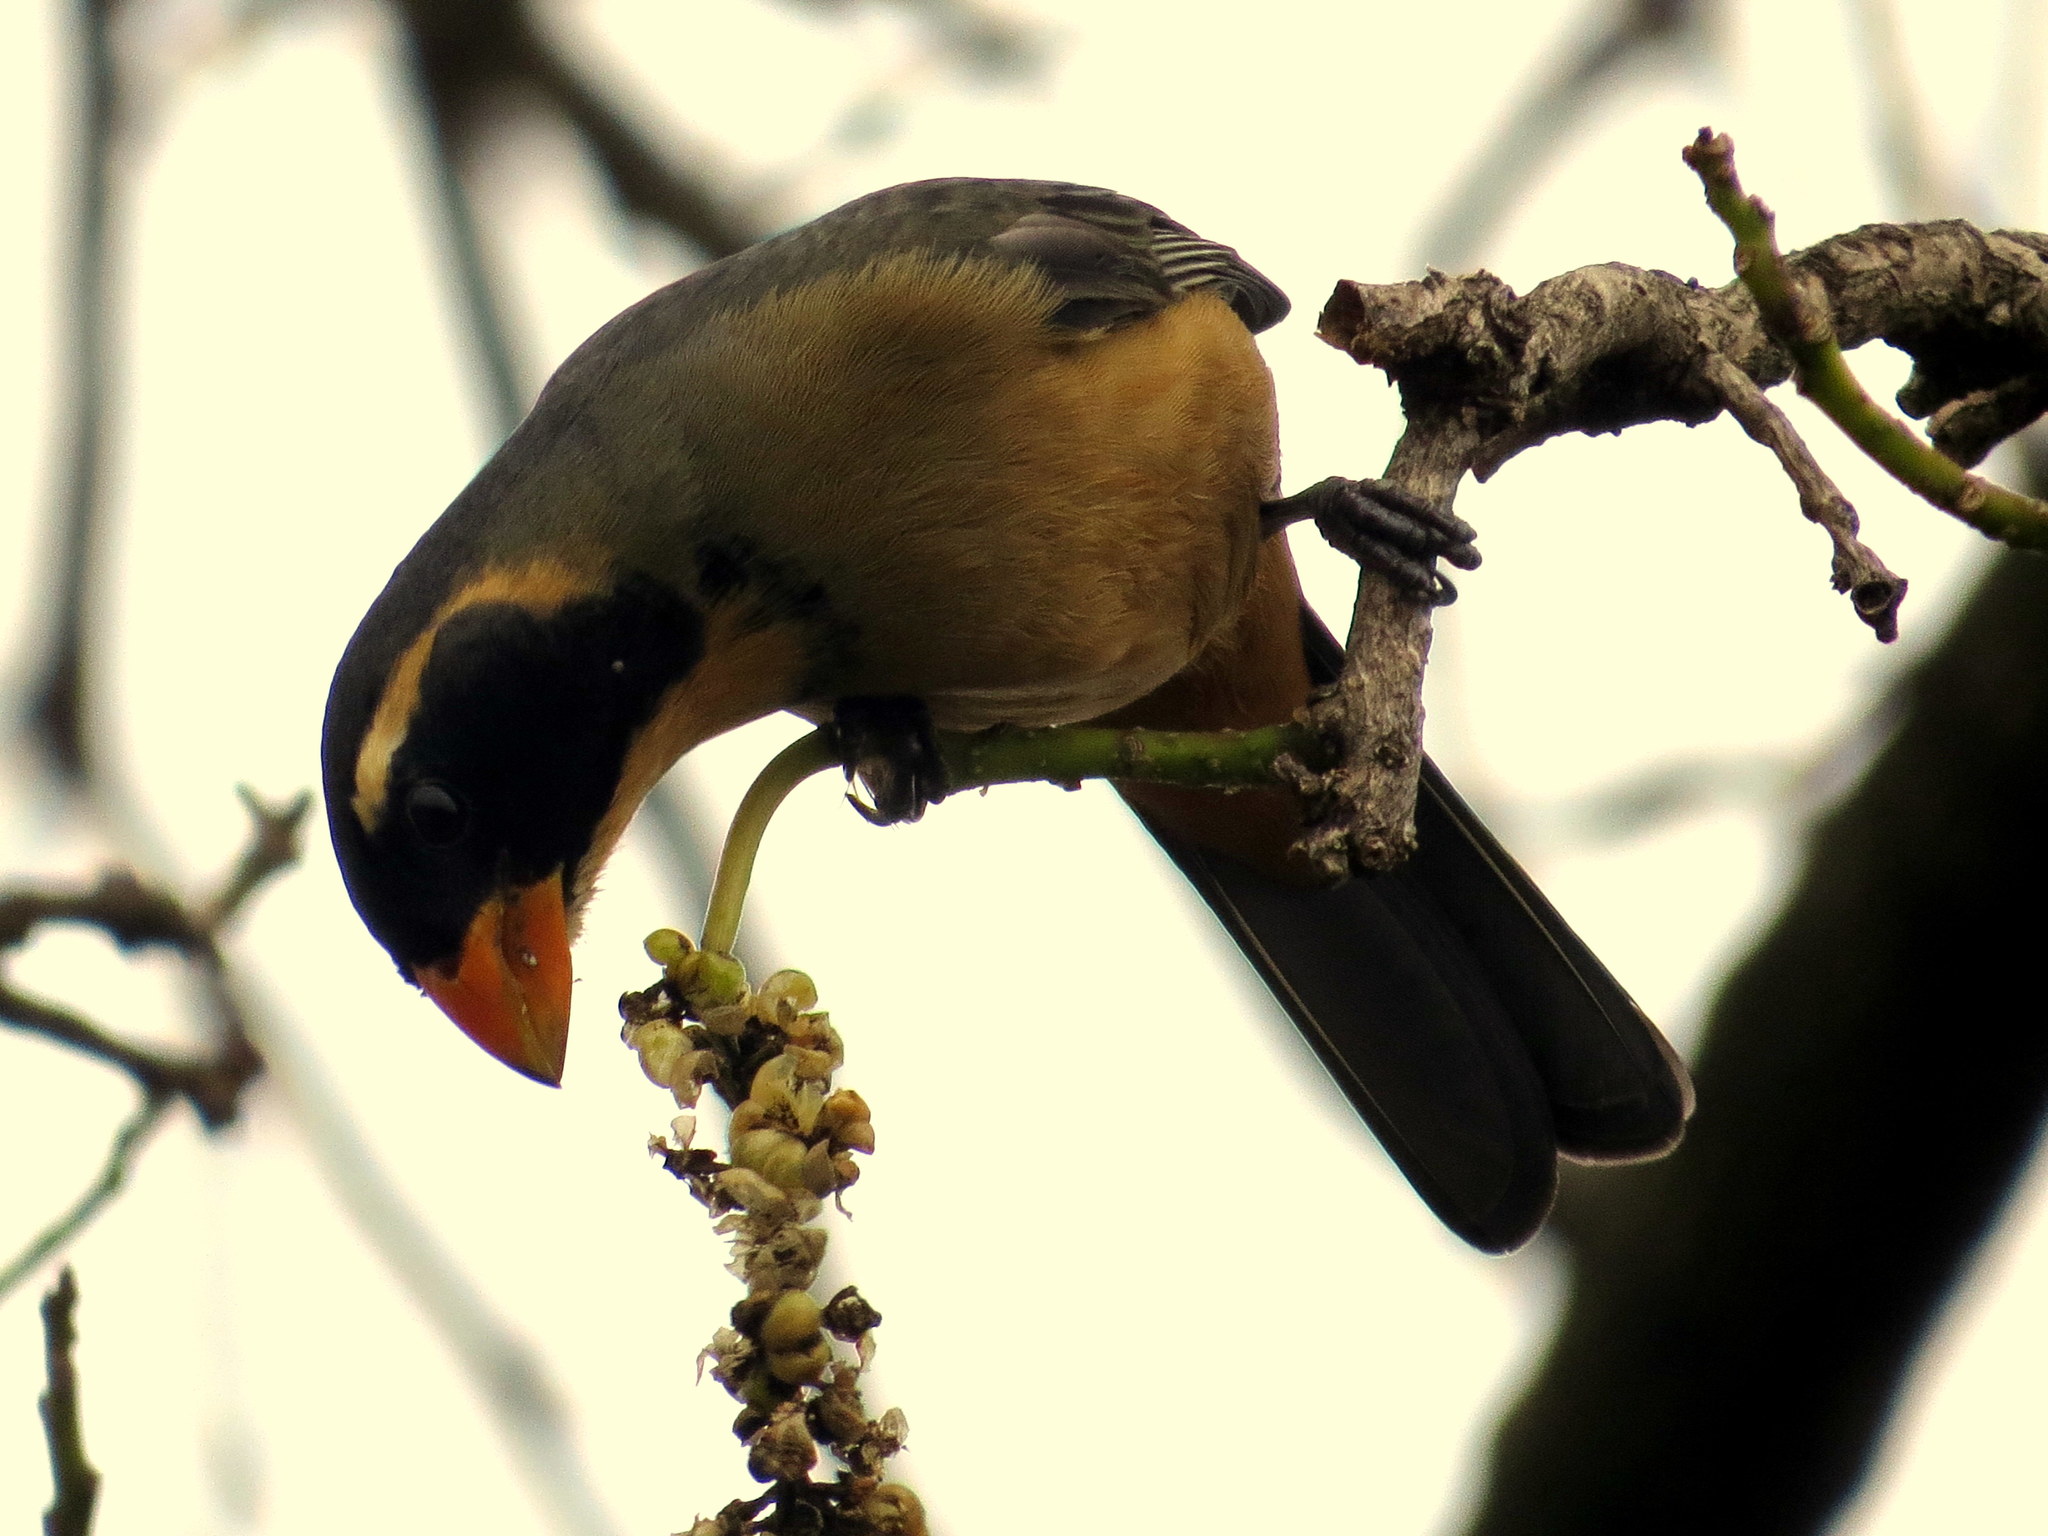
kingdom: Animalia
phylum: Chordata
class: Aves
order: Passeriformes
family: Thraupidae
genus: Saltator
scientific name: Saltator aurantiirostris
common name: Golden-billed saltator
